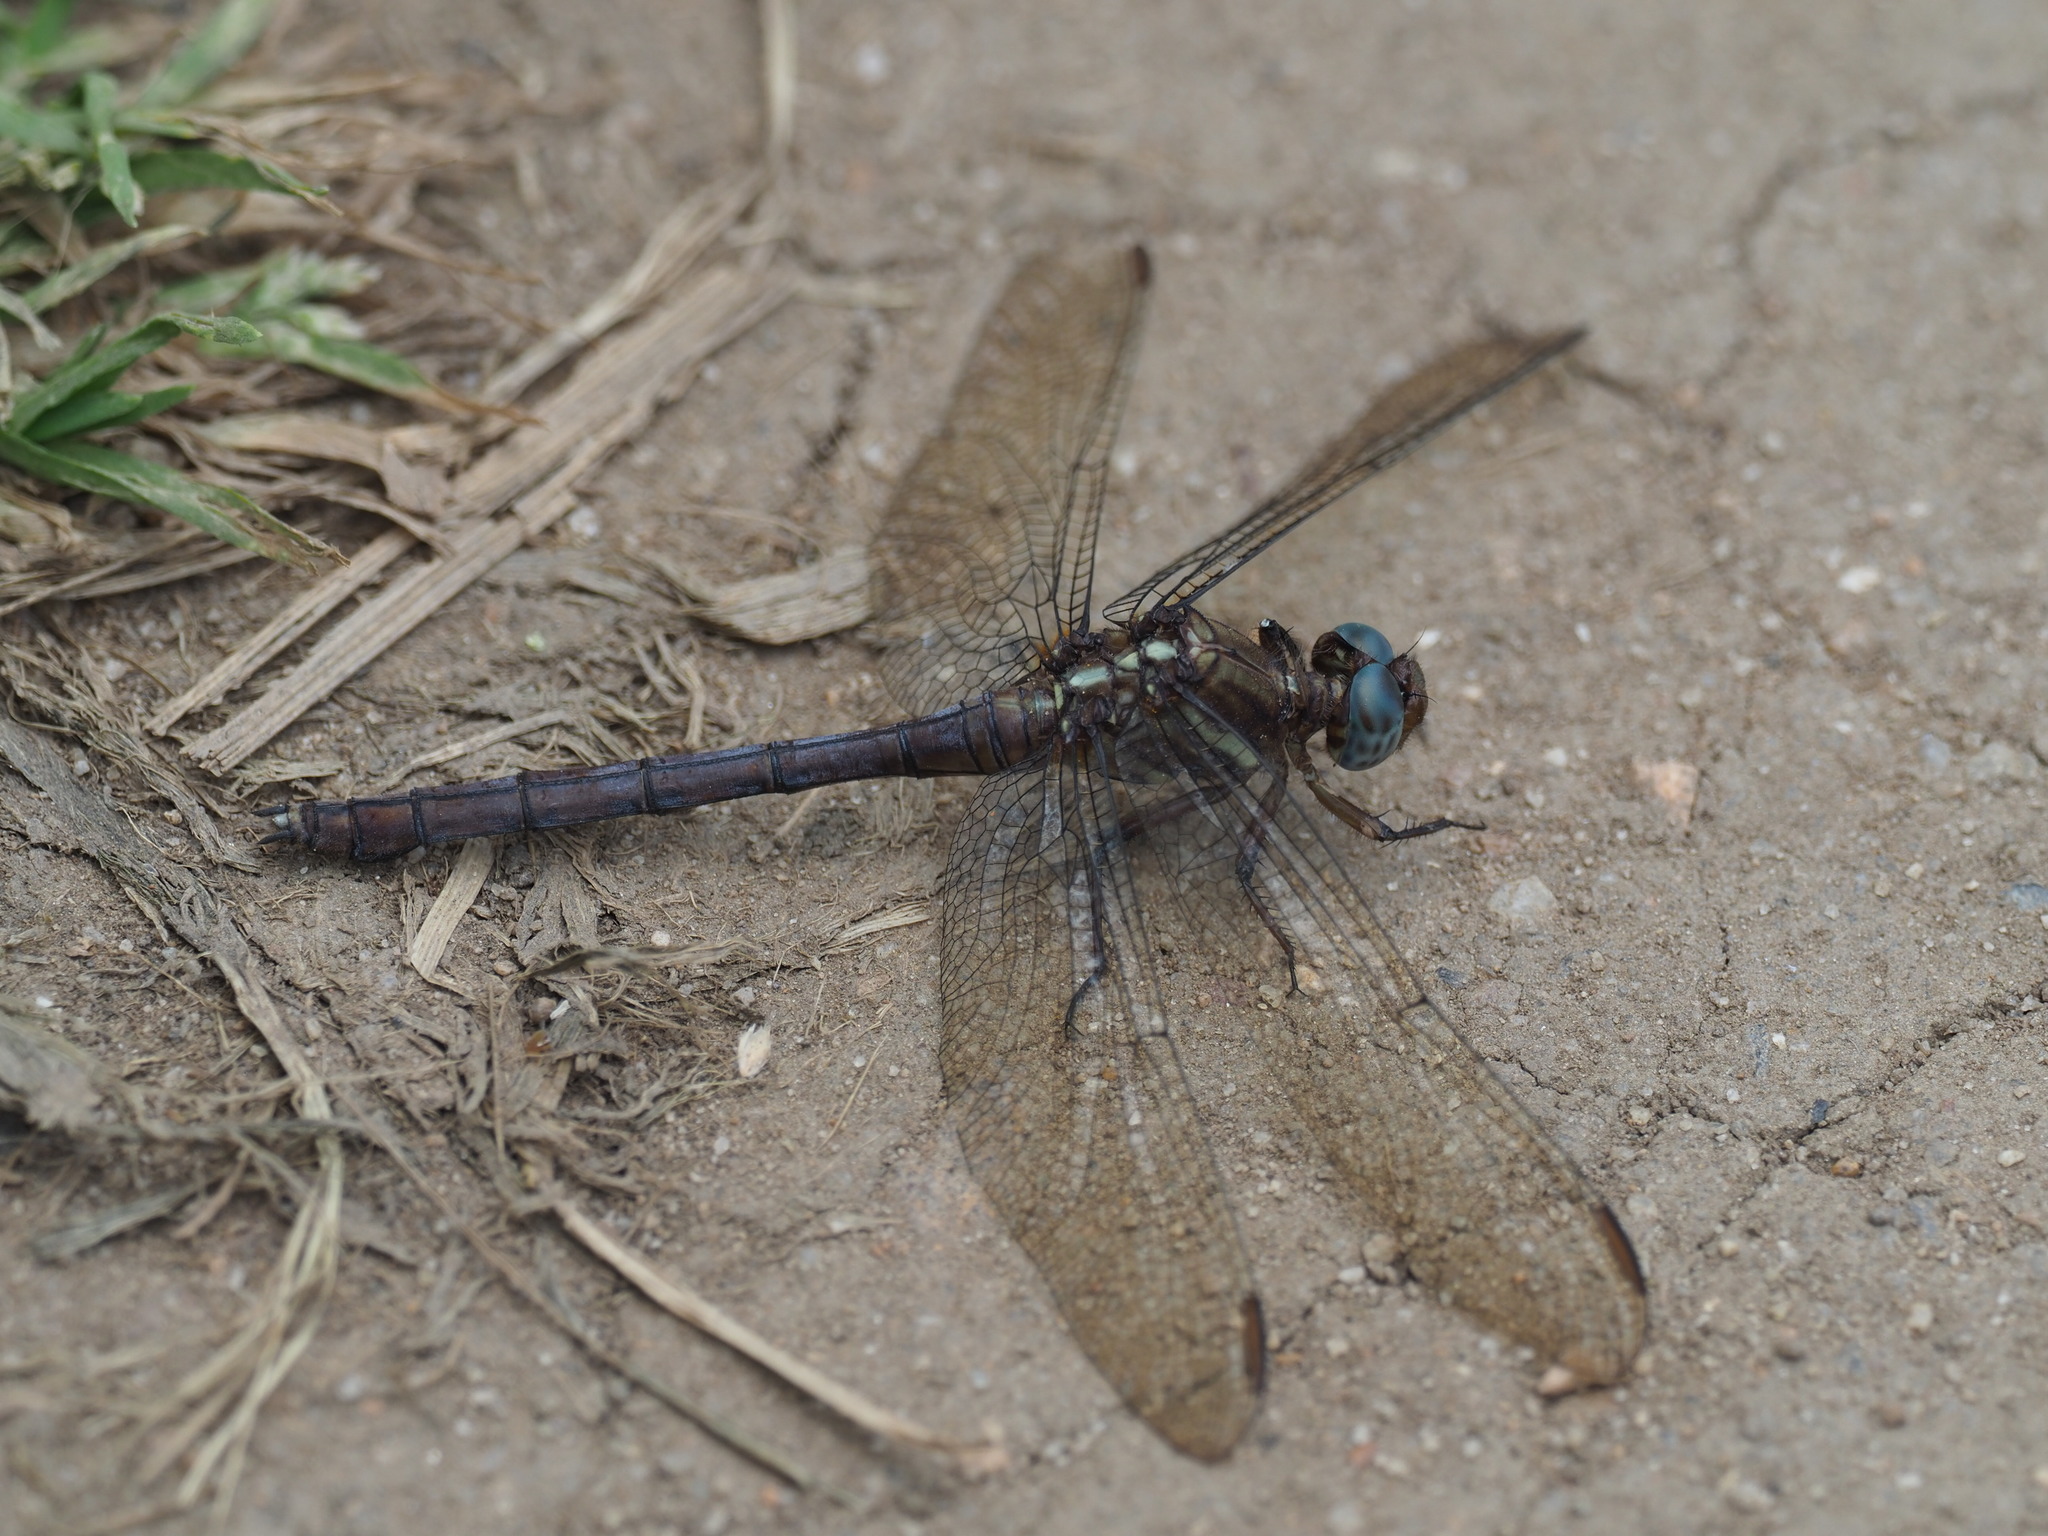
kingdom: Animalia
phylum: Arthropoda
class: Insecta
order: Odonata
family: Libellulidae
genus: Orthetrum
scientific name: Orthetrum julia
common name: Julia skimmer
